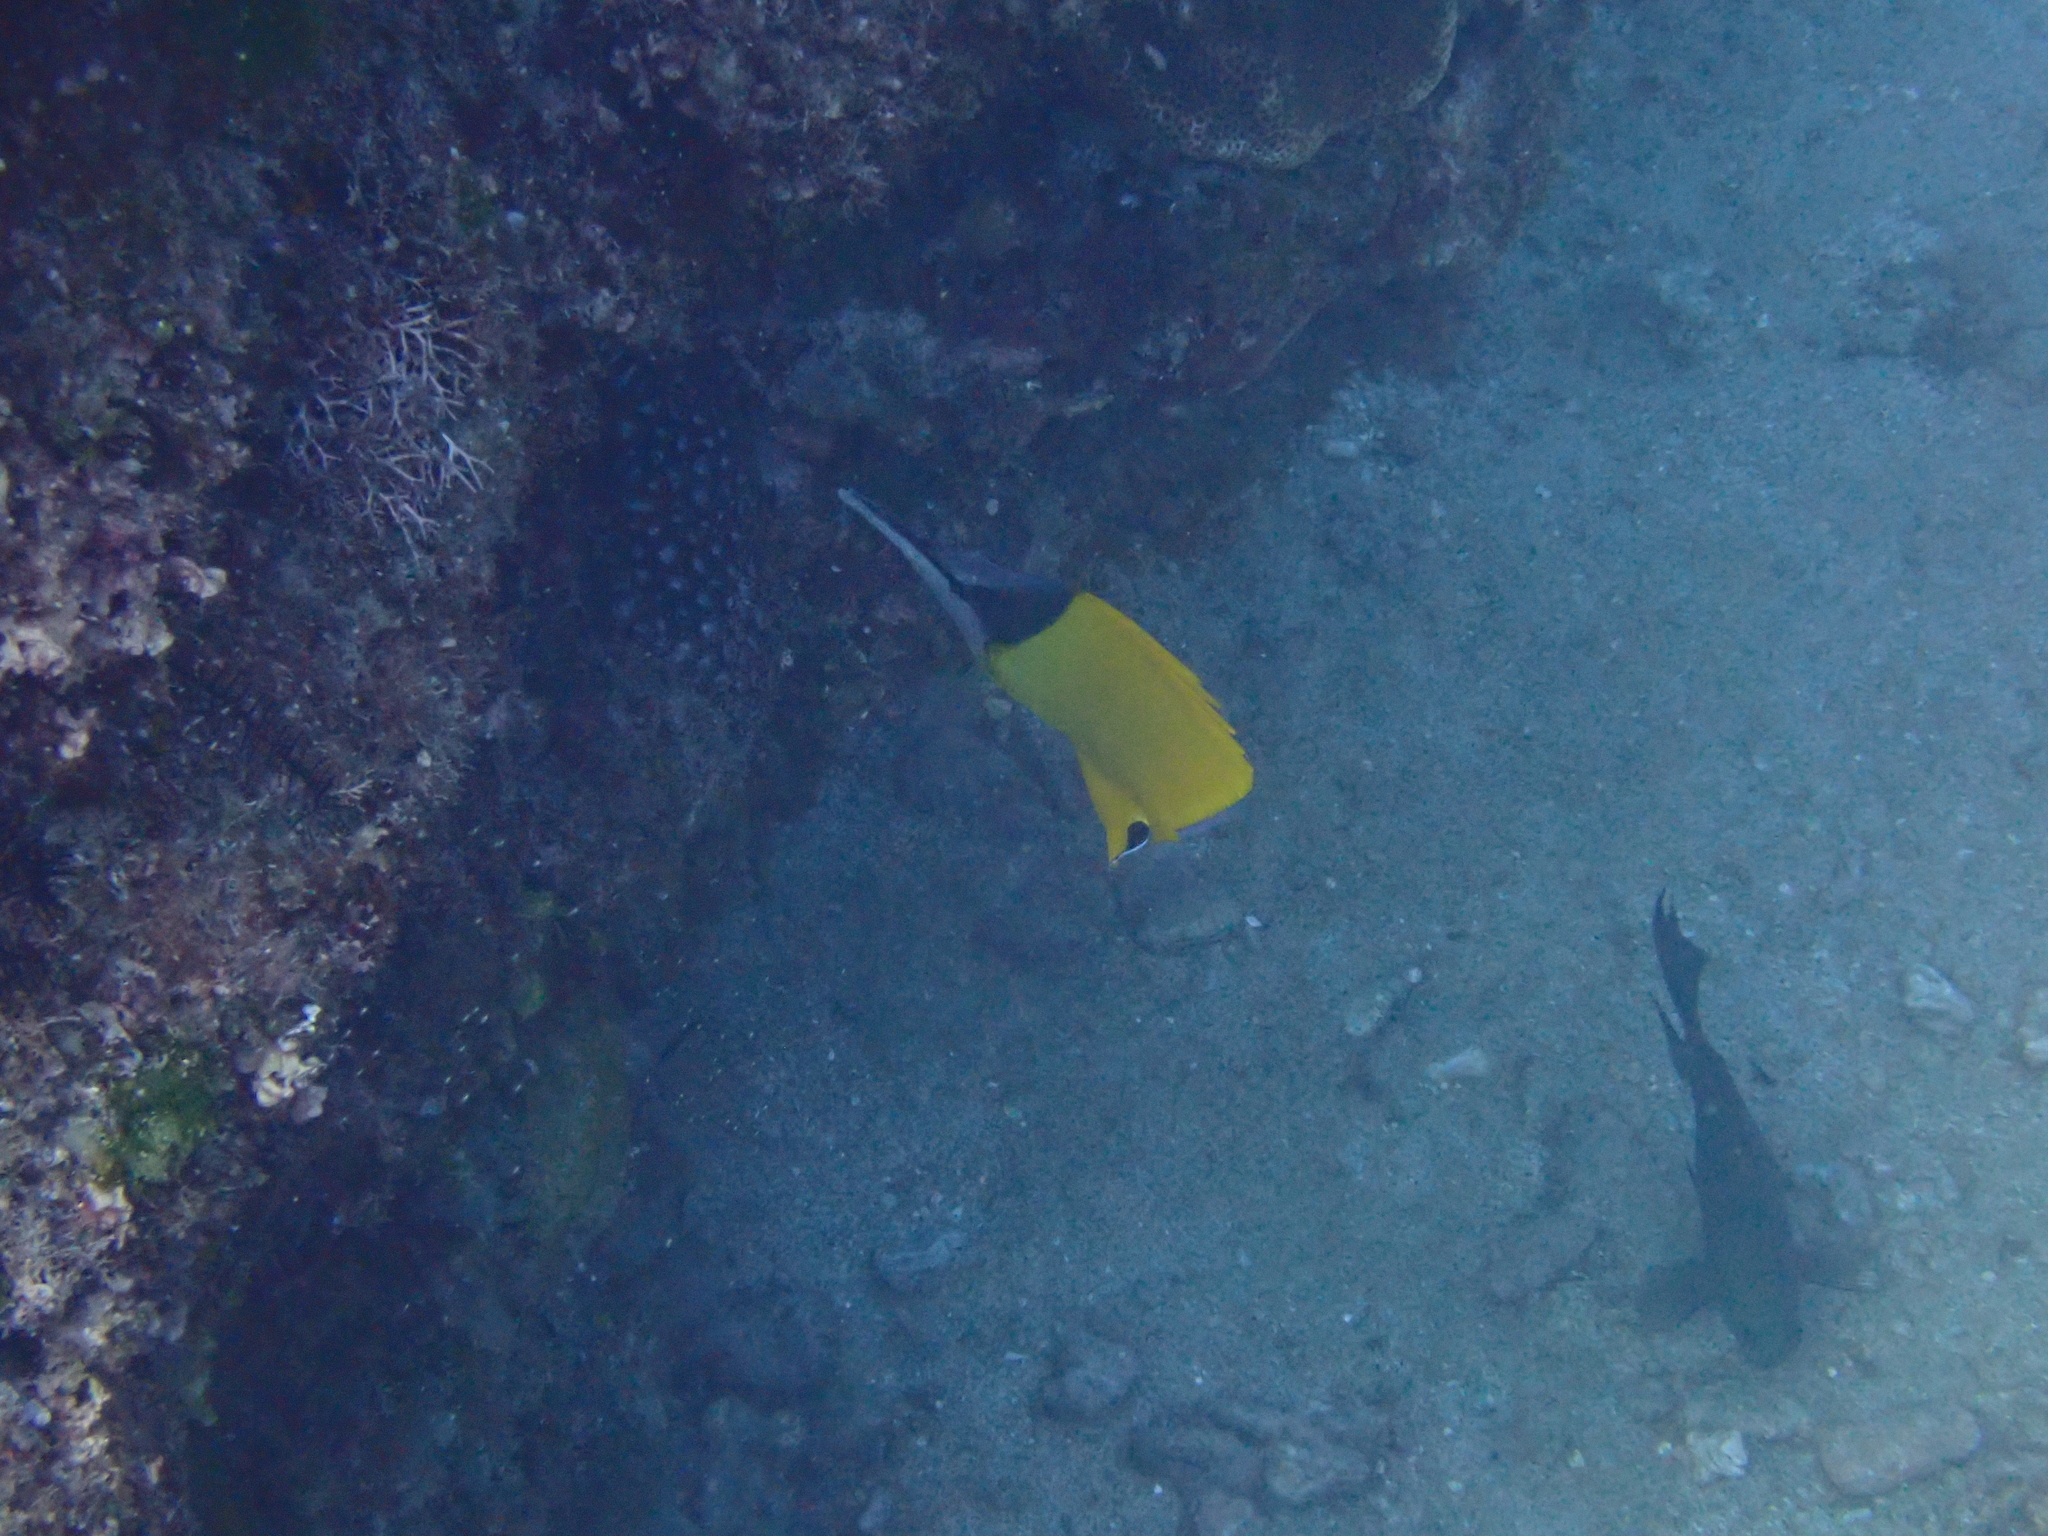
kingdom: Animalia
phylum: Chordata
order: Perciformes
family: Chaetodontidae
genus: Forcipiger
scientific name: Forcipiger flavissimus
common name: Forcepsfish
